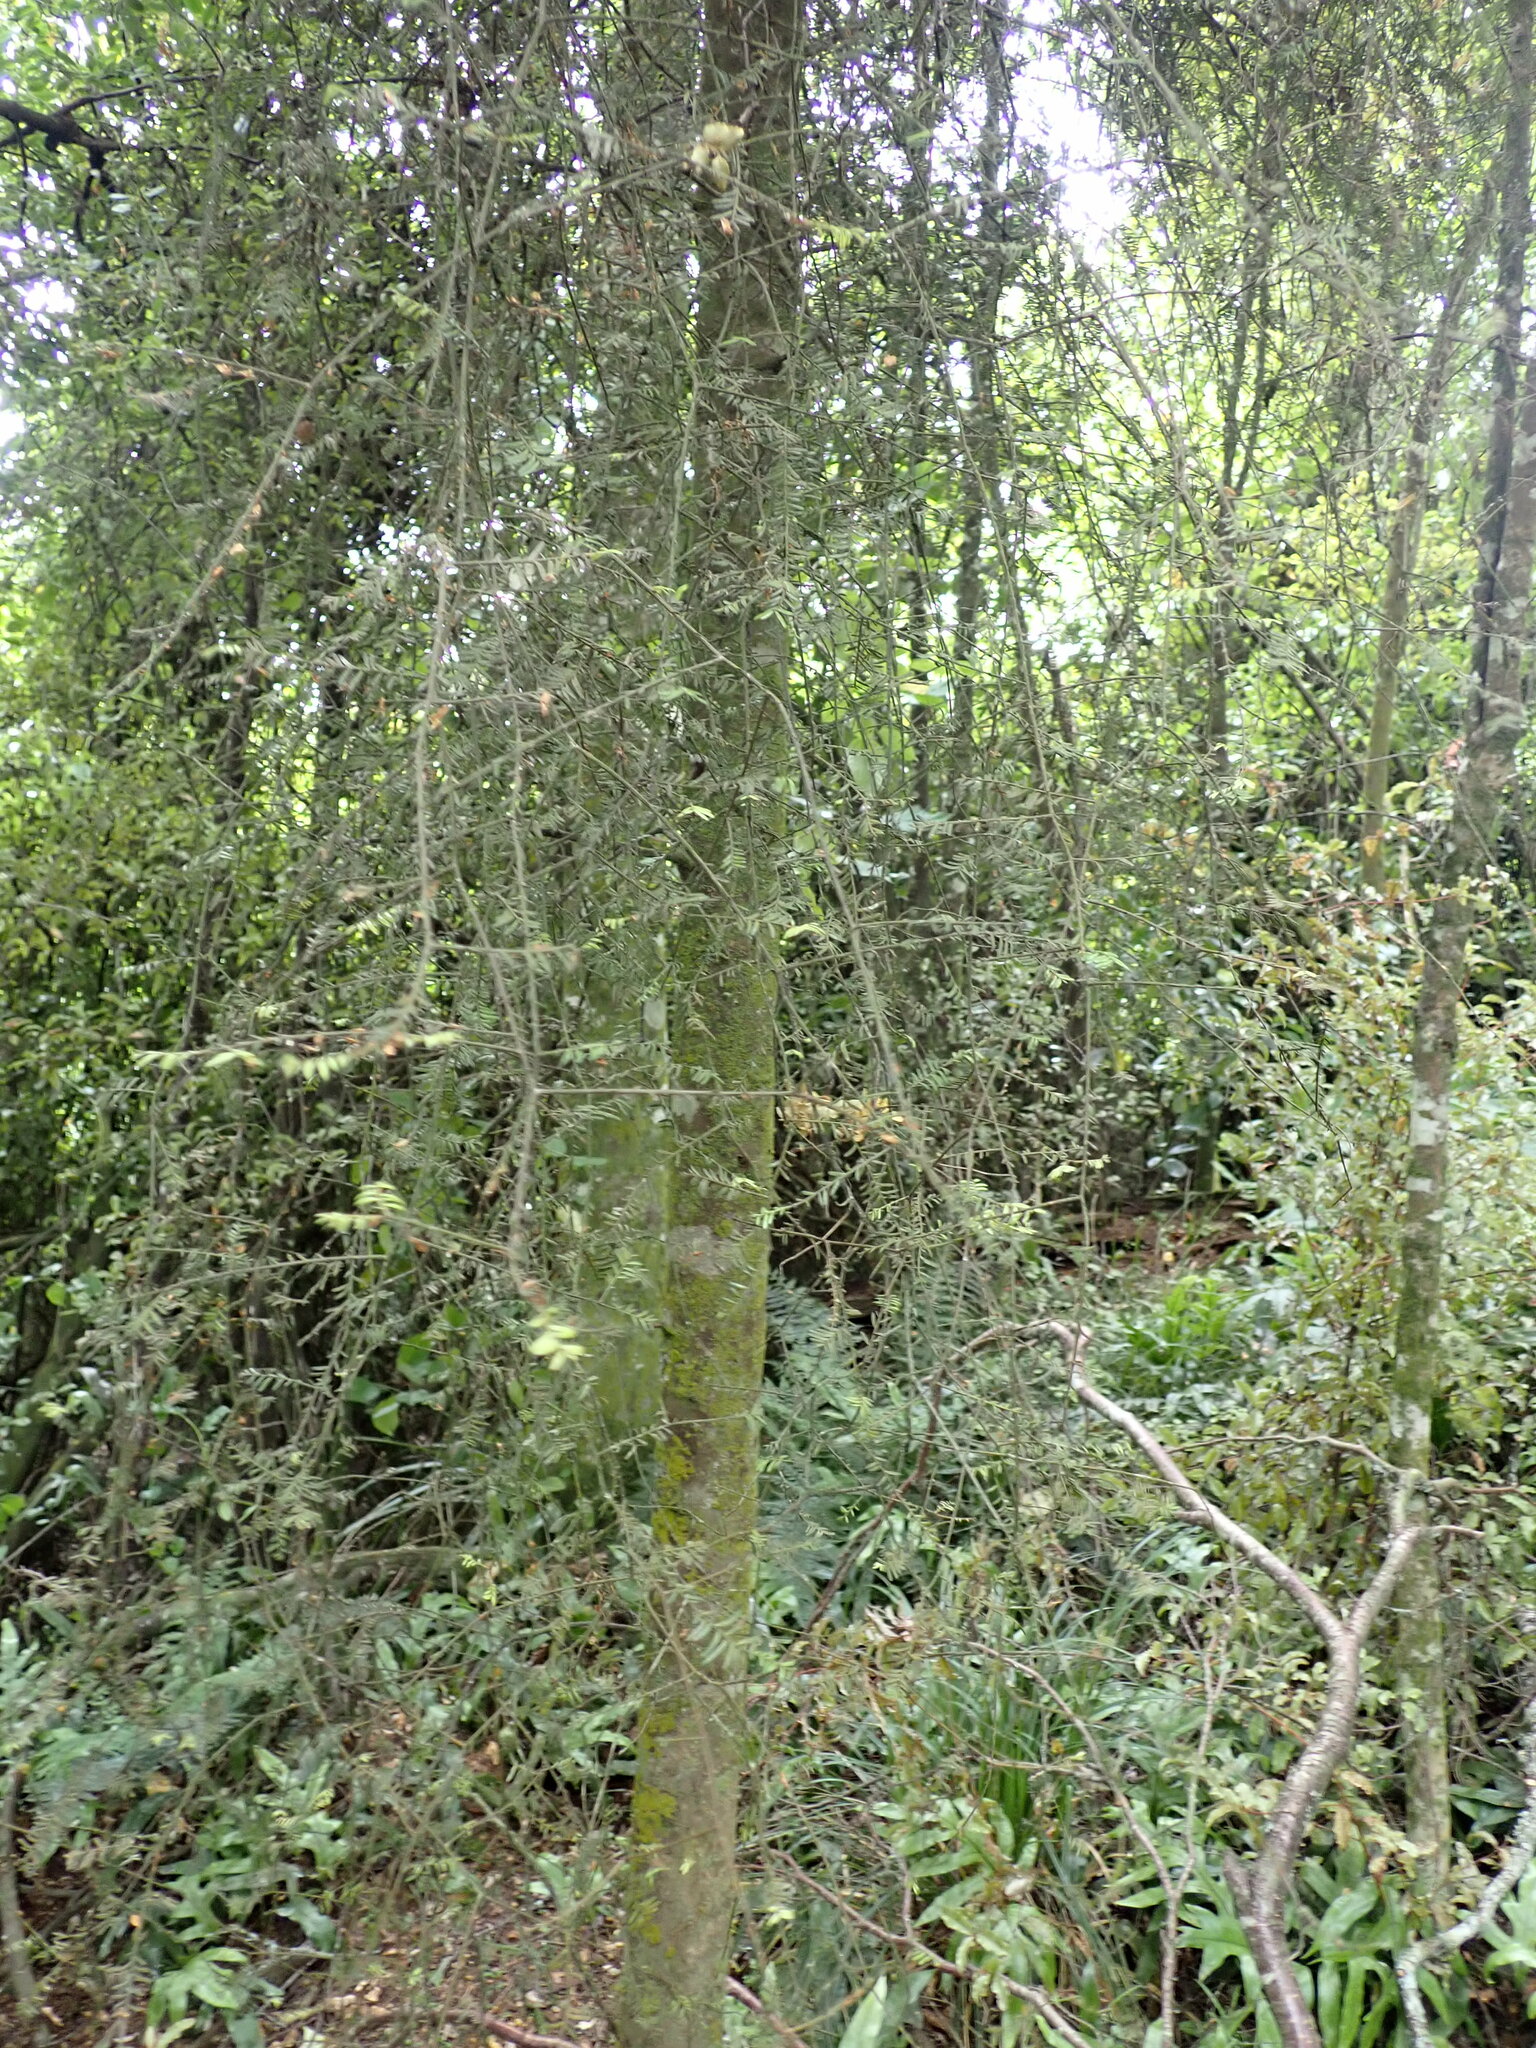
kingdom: Plantae
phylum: Tracheophyta
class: Pinopsida
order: Pinales
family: Podocarpaceae
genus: Prumnopitys
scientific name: Prumnopitys taxifolia
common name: Matai
